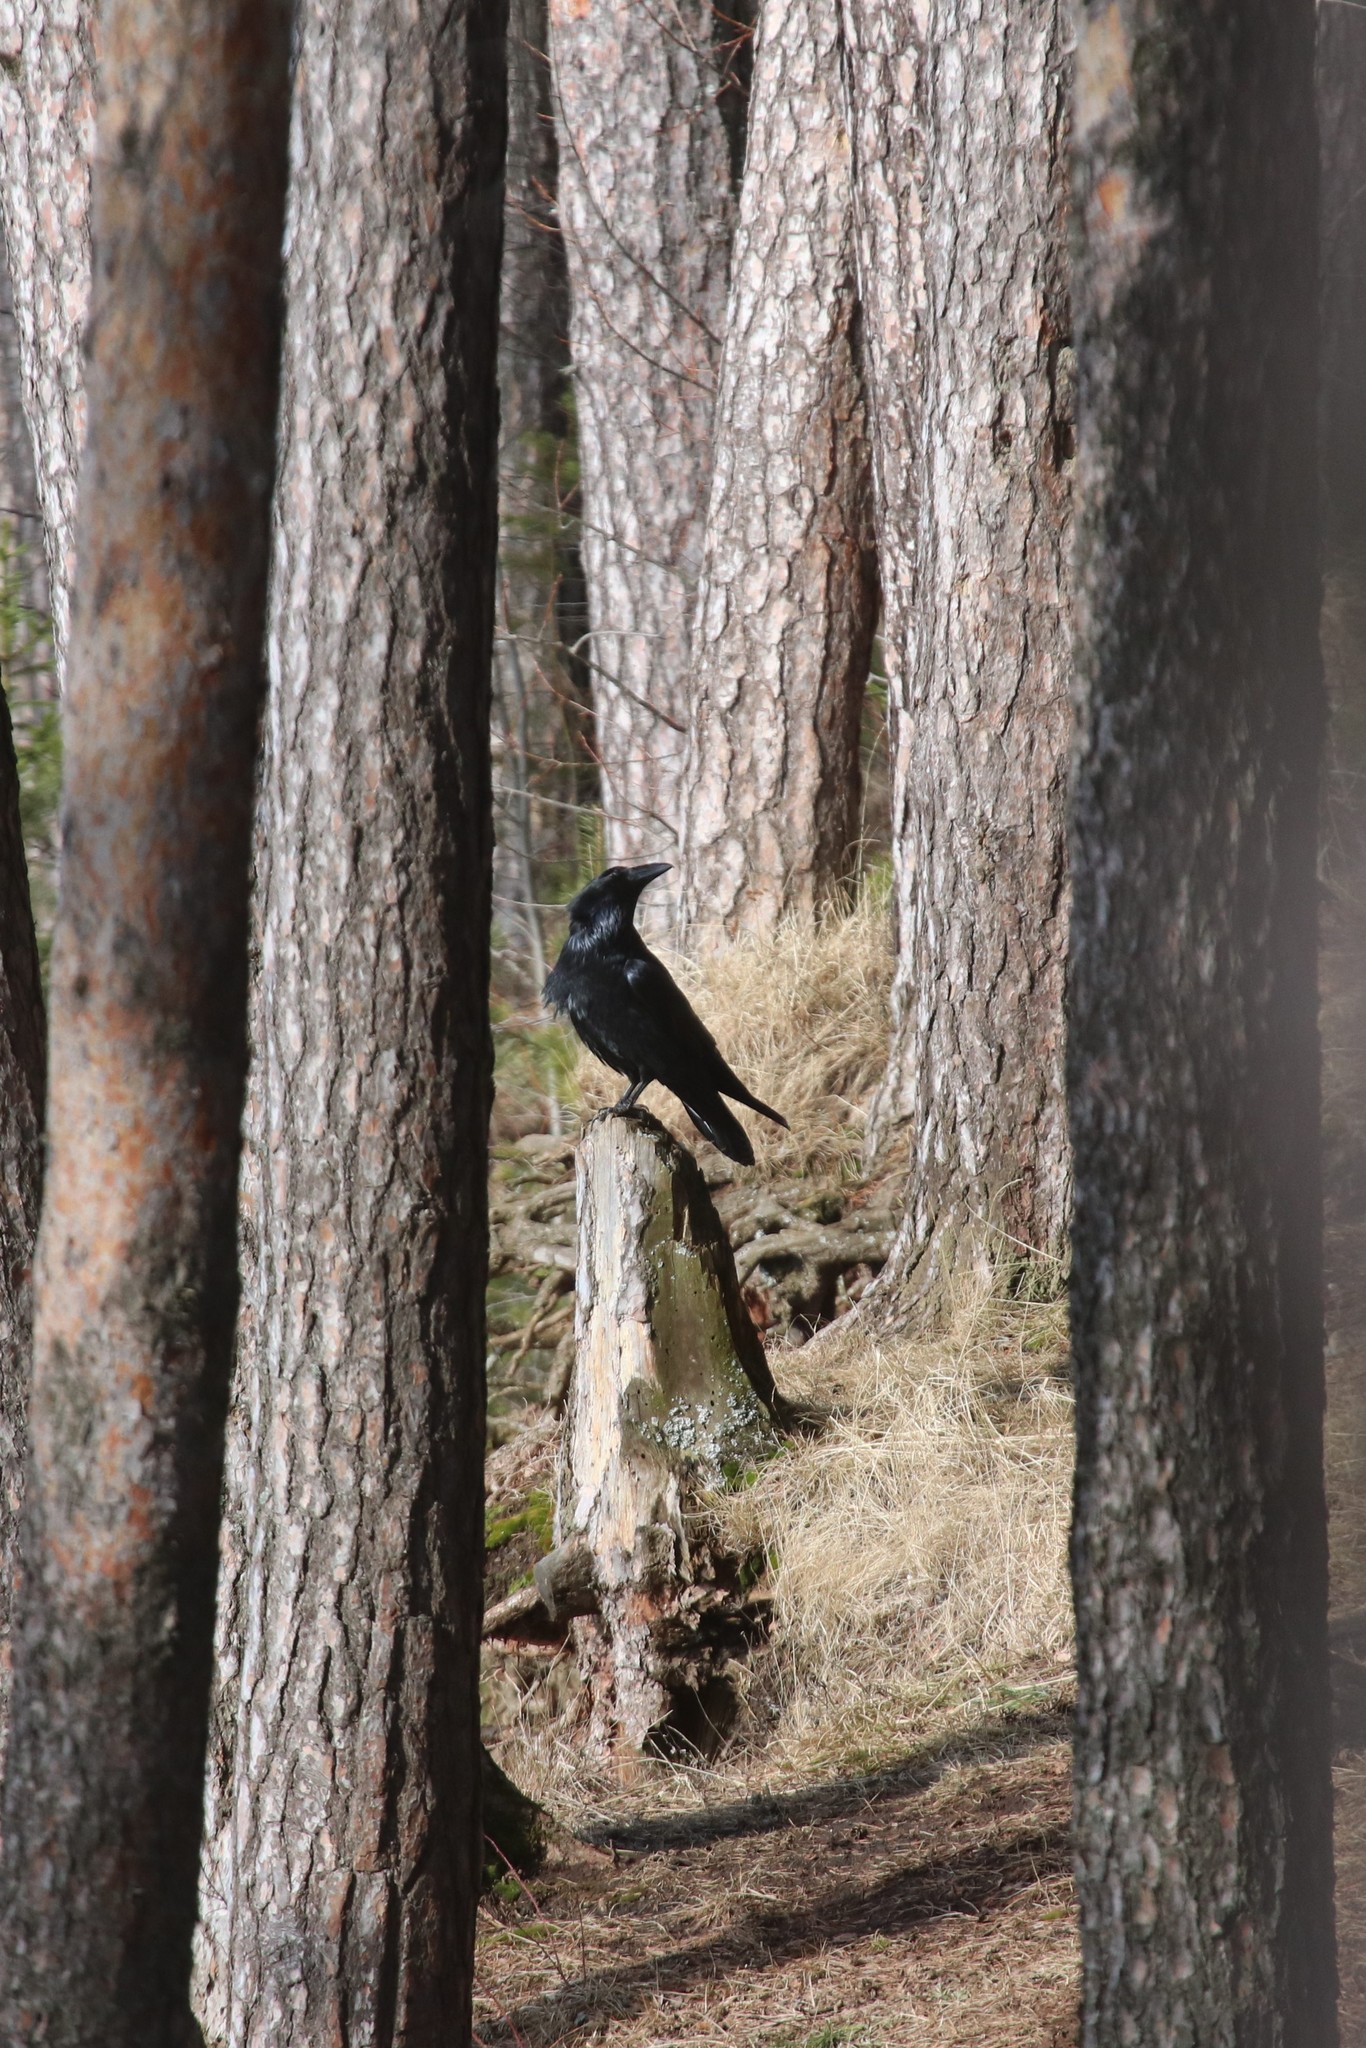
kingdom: Animalia
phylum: Chordata
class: Aves
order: Passeriformes
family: Corvidae
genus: Corvus
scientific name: Corvus corax
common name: Common raven
